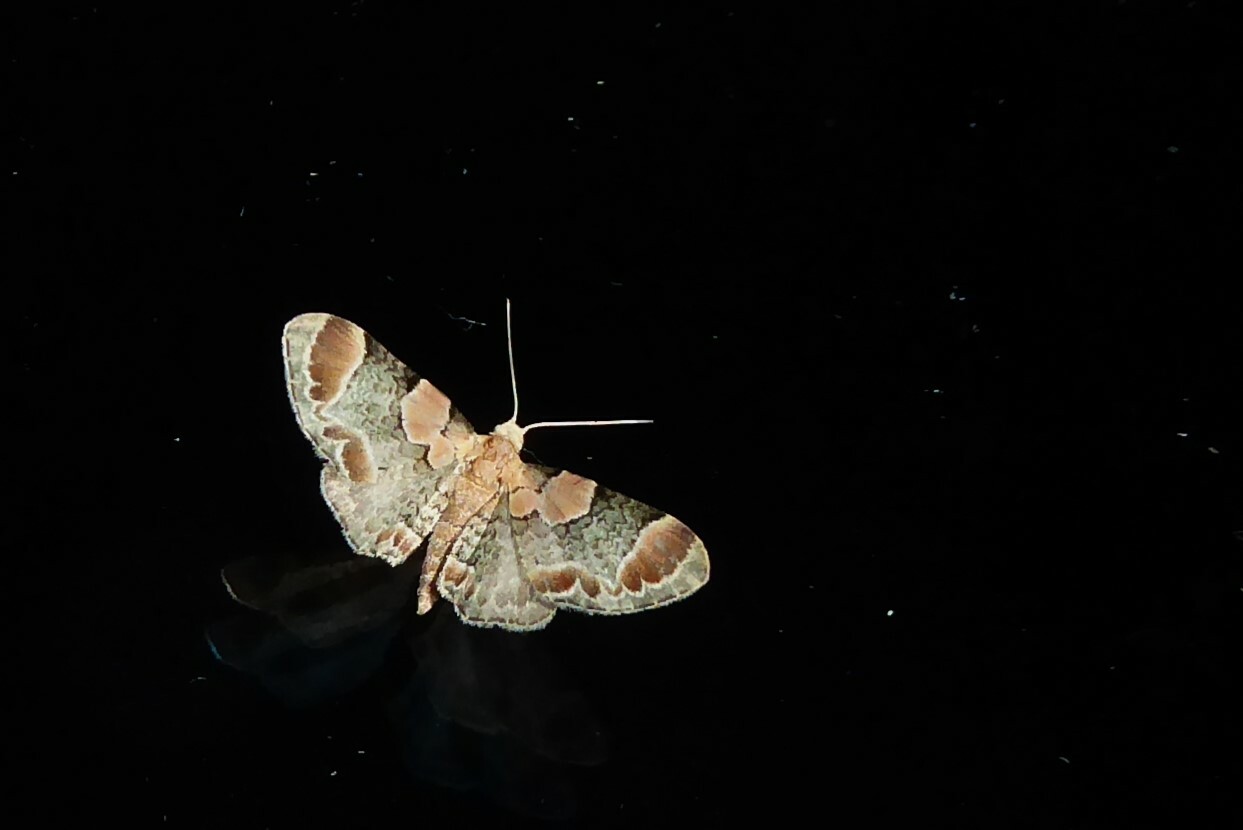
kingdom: Animalia
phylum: Arthropoda
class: Insecta
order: Lepidoptera
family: Geometridae
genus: Chloroclystis
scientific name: Chloroclystis
